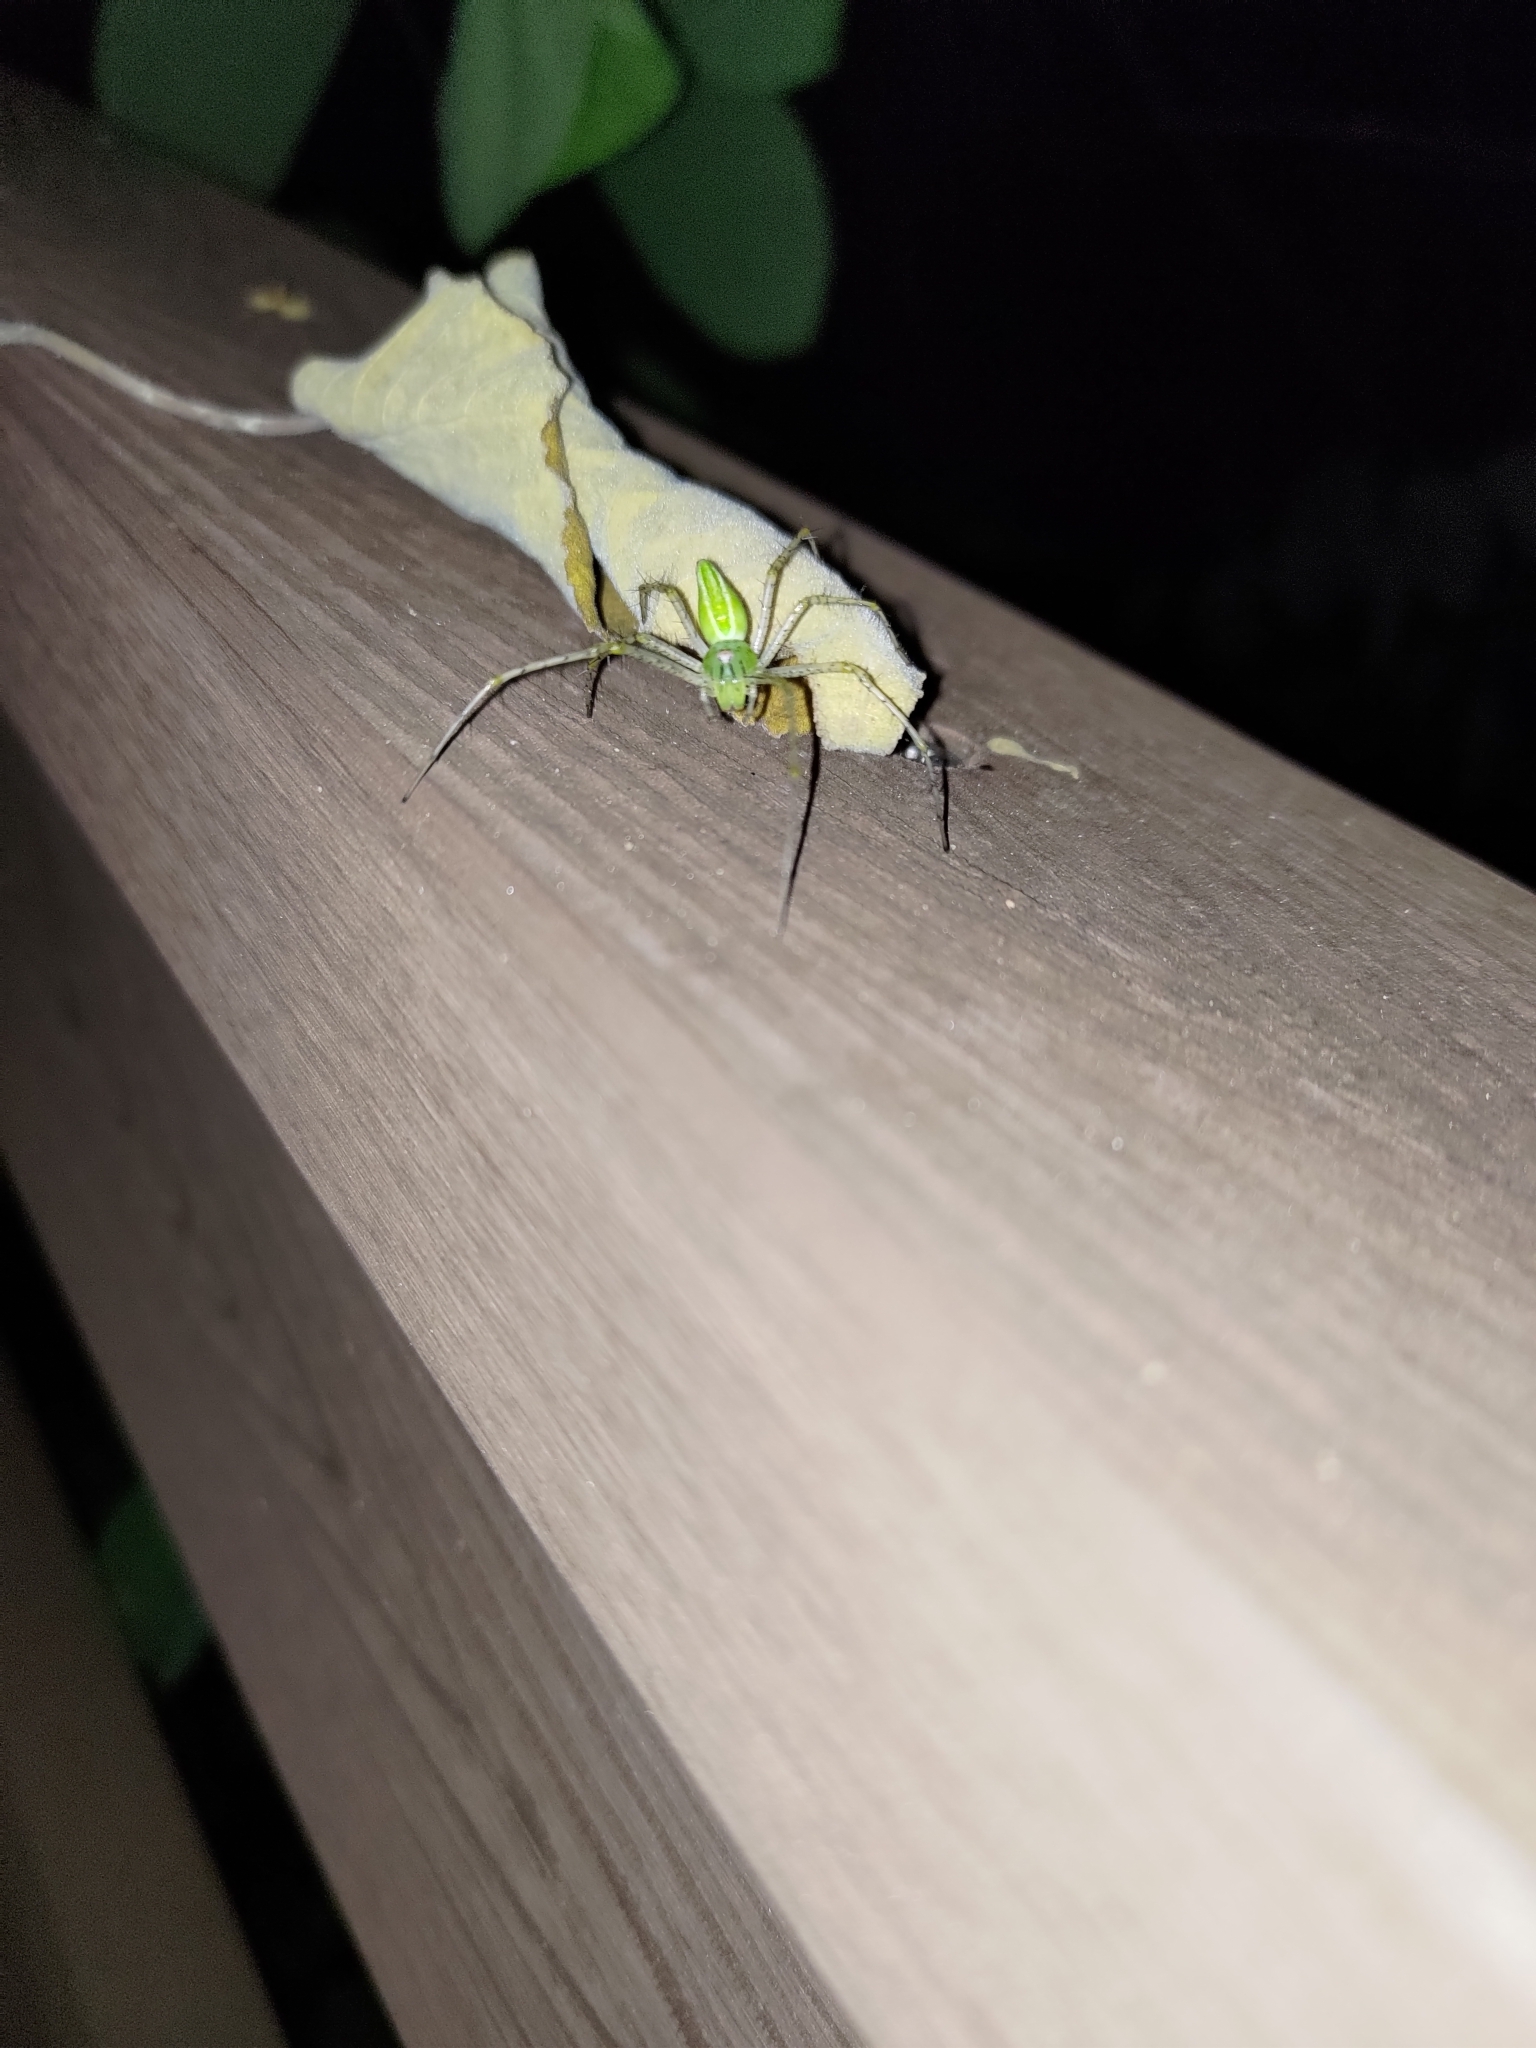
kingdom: Animalia
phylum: Arthropoda
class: Arachnida
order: Araneae
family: Oxyopidae
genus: Peucetia
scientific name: Peucetia formosensis
